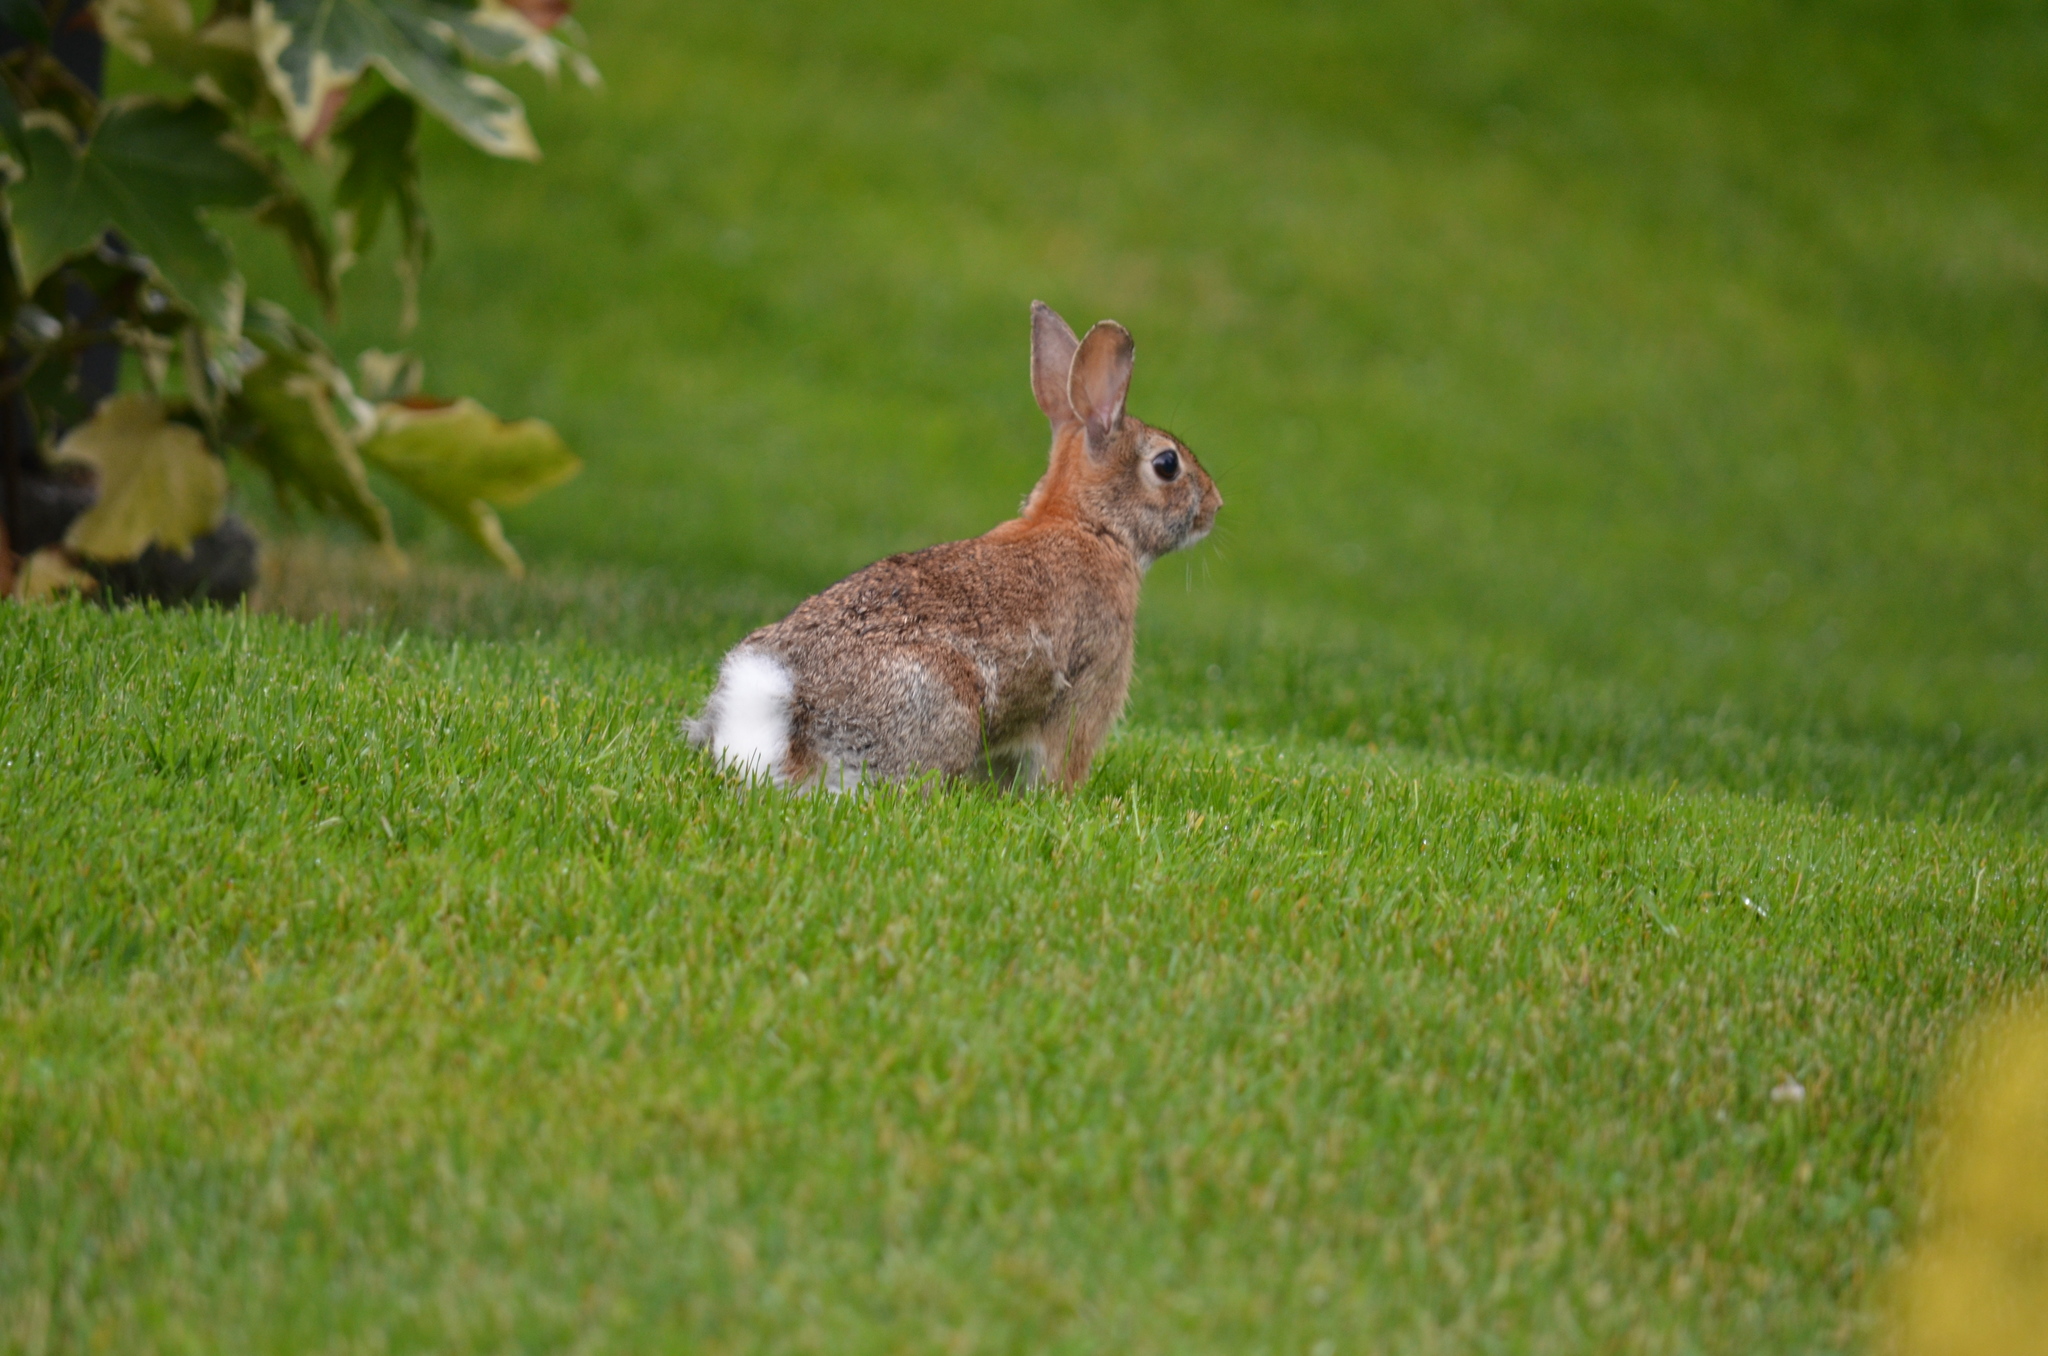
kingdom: Animalia
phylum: Chordata
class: Mammalia
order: Lagomorpha
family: Leporidae
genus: Sylvilagus
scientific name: Sylvilagus floridanus
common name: Eastern cottontail
